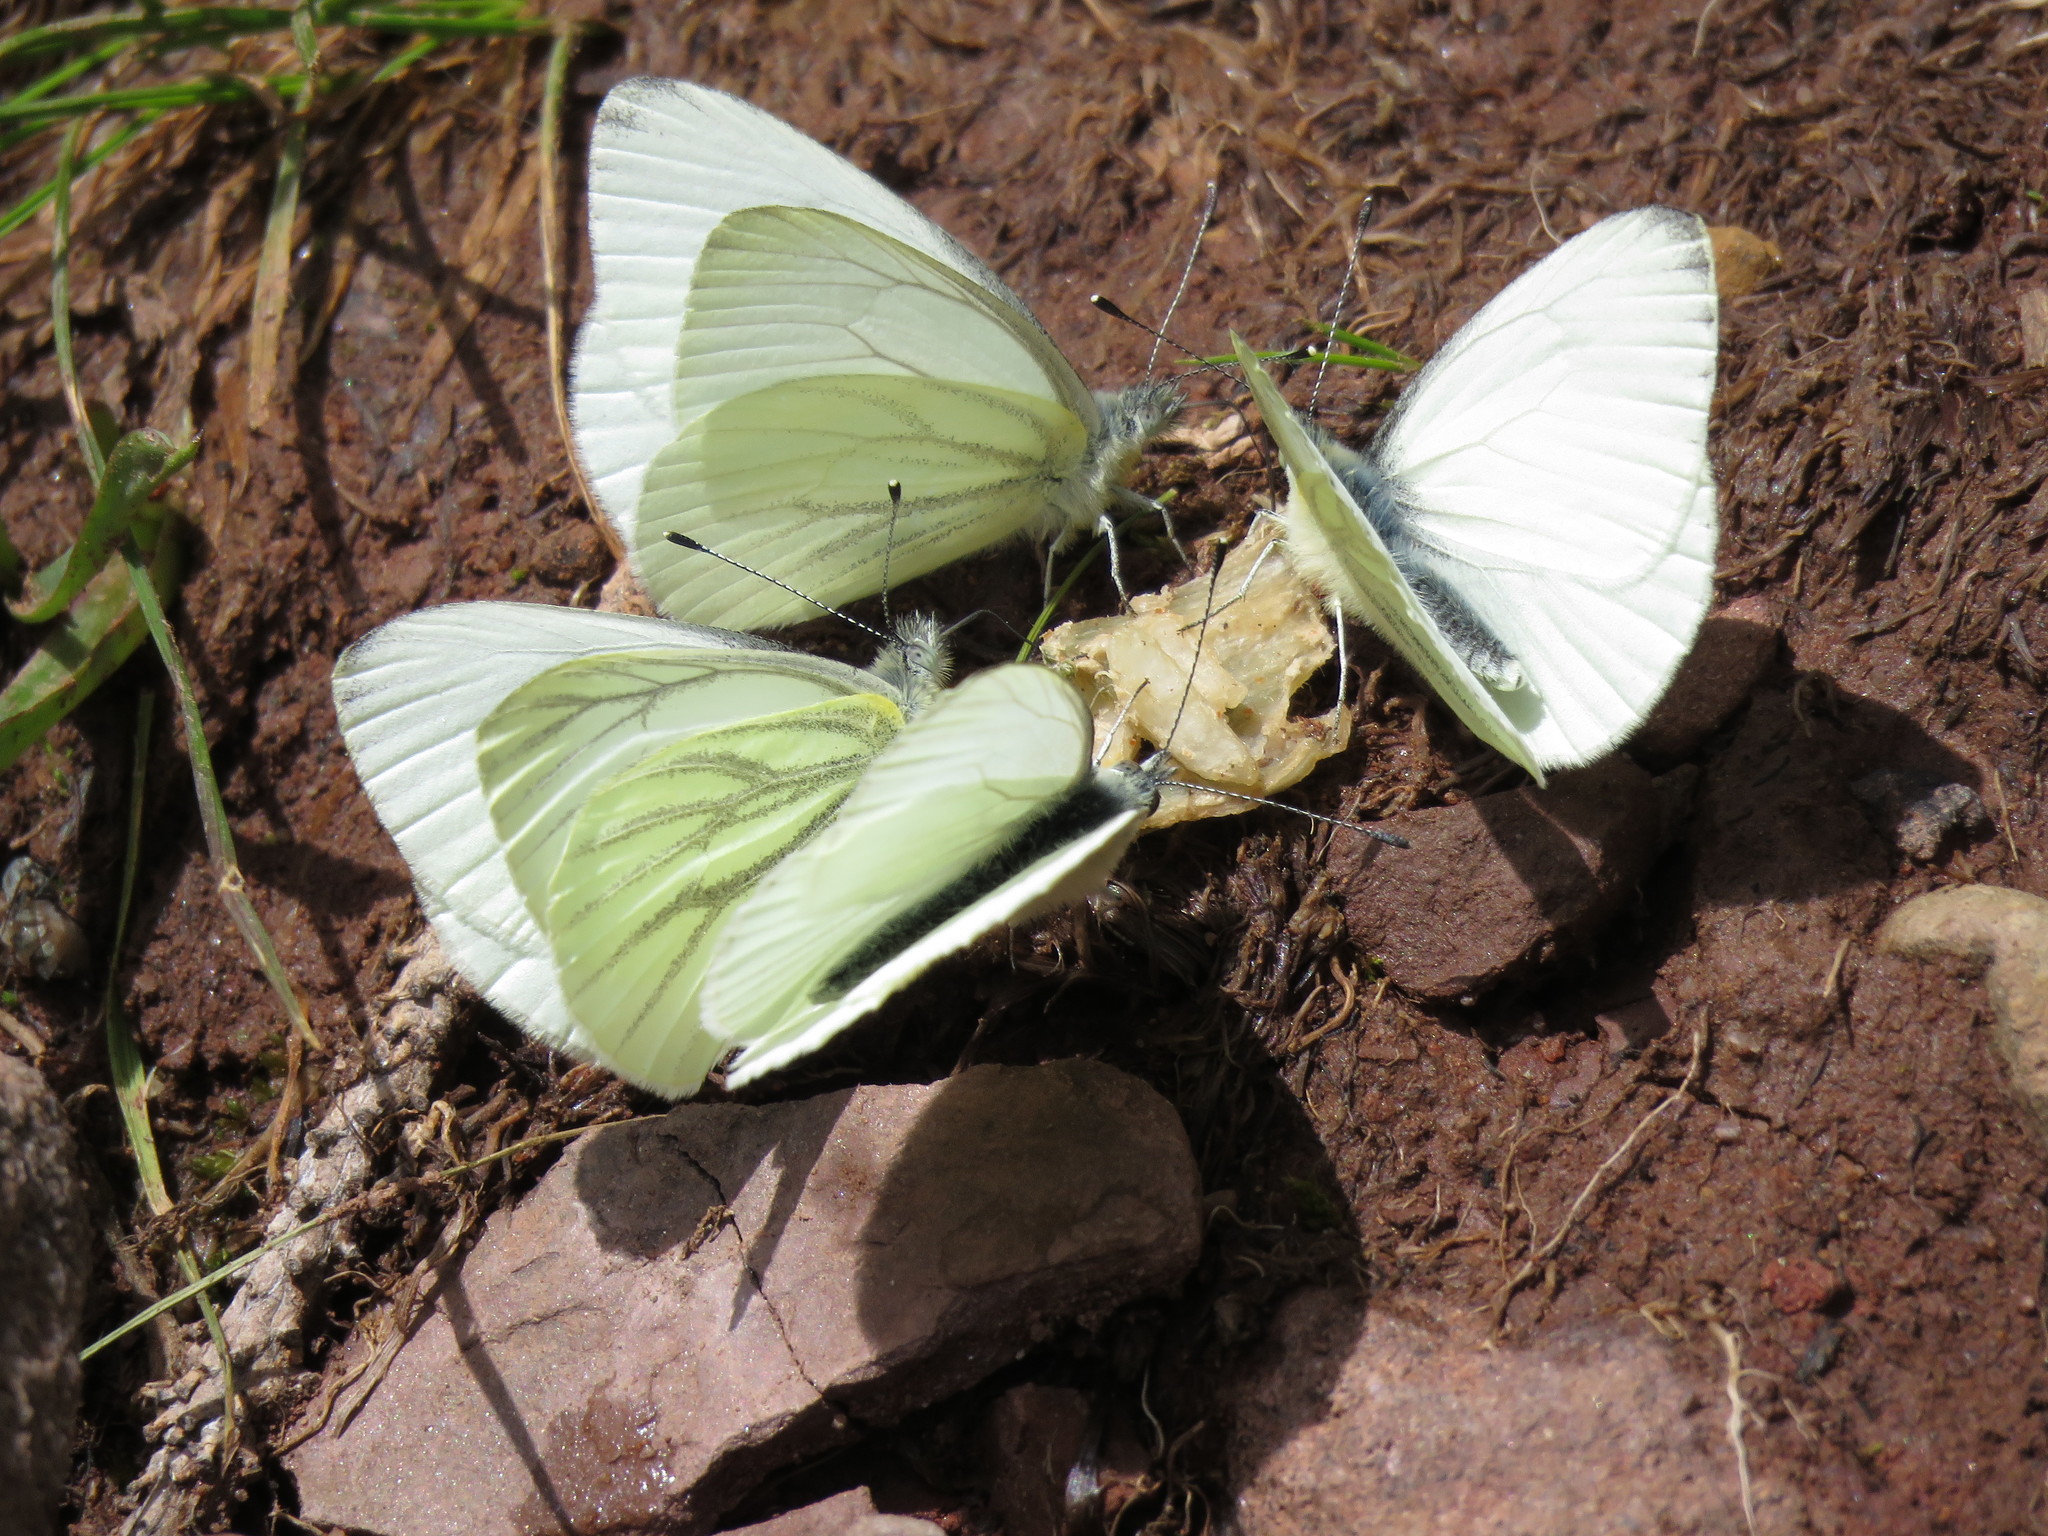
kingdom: Animalia
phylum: Arthropoda
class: Insecta
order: Lepidoptera
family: Pieridae
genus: Pieris
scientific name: Pieris marginalis
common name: Margined white
